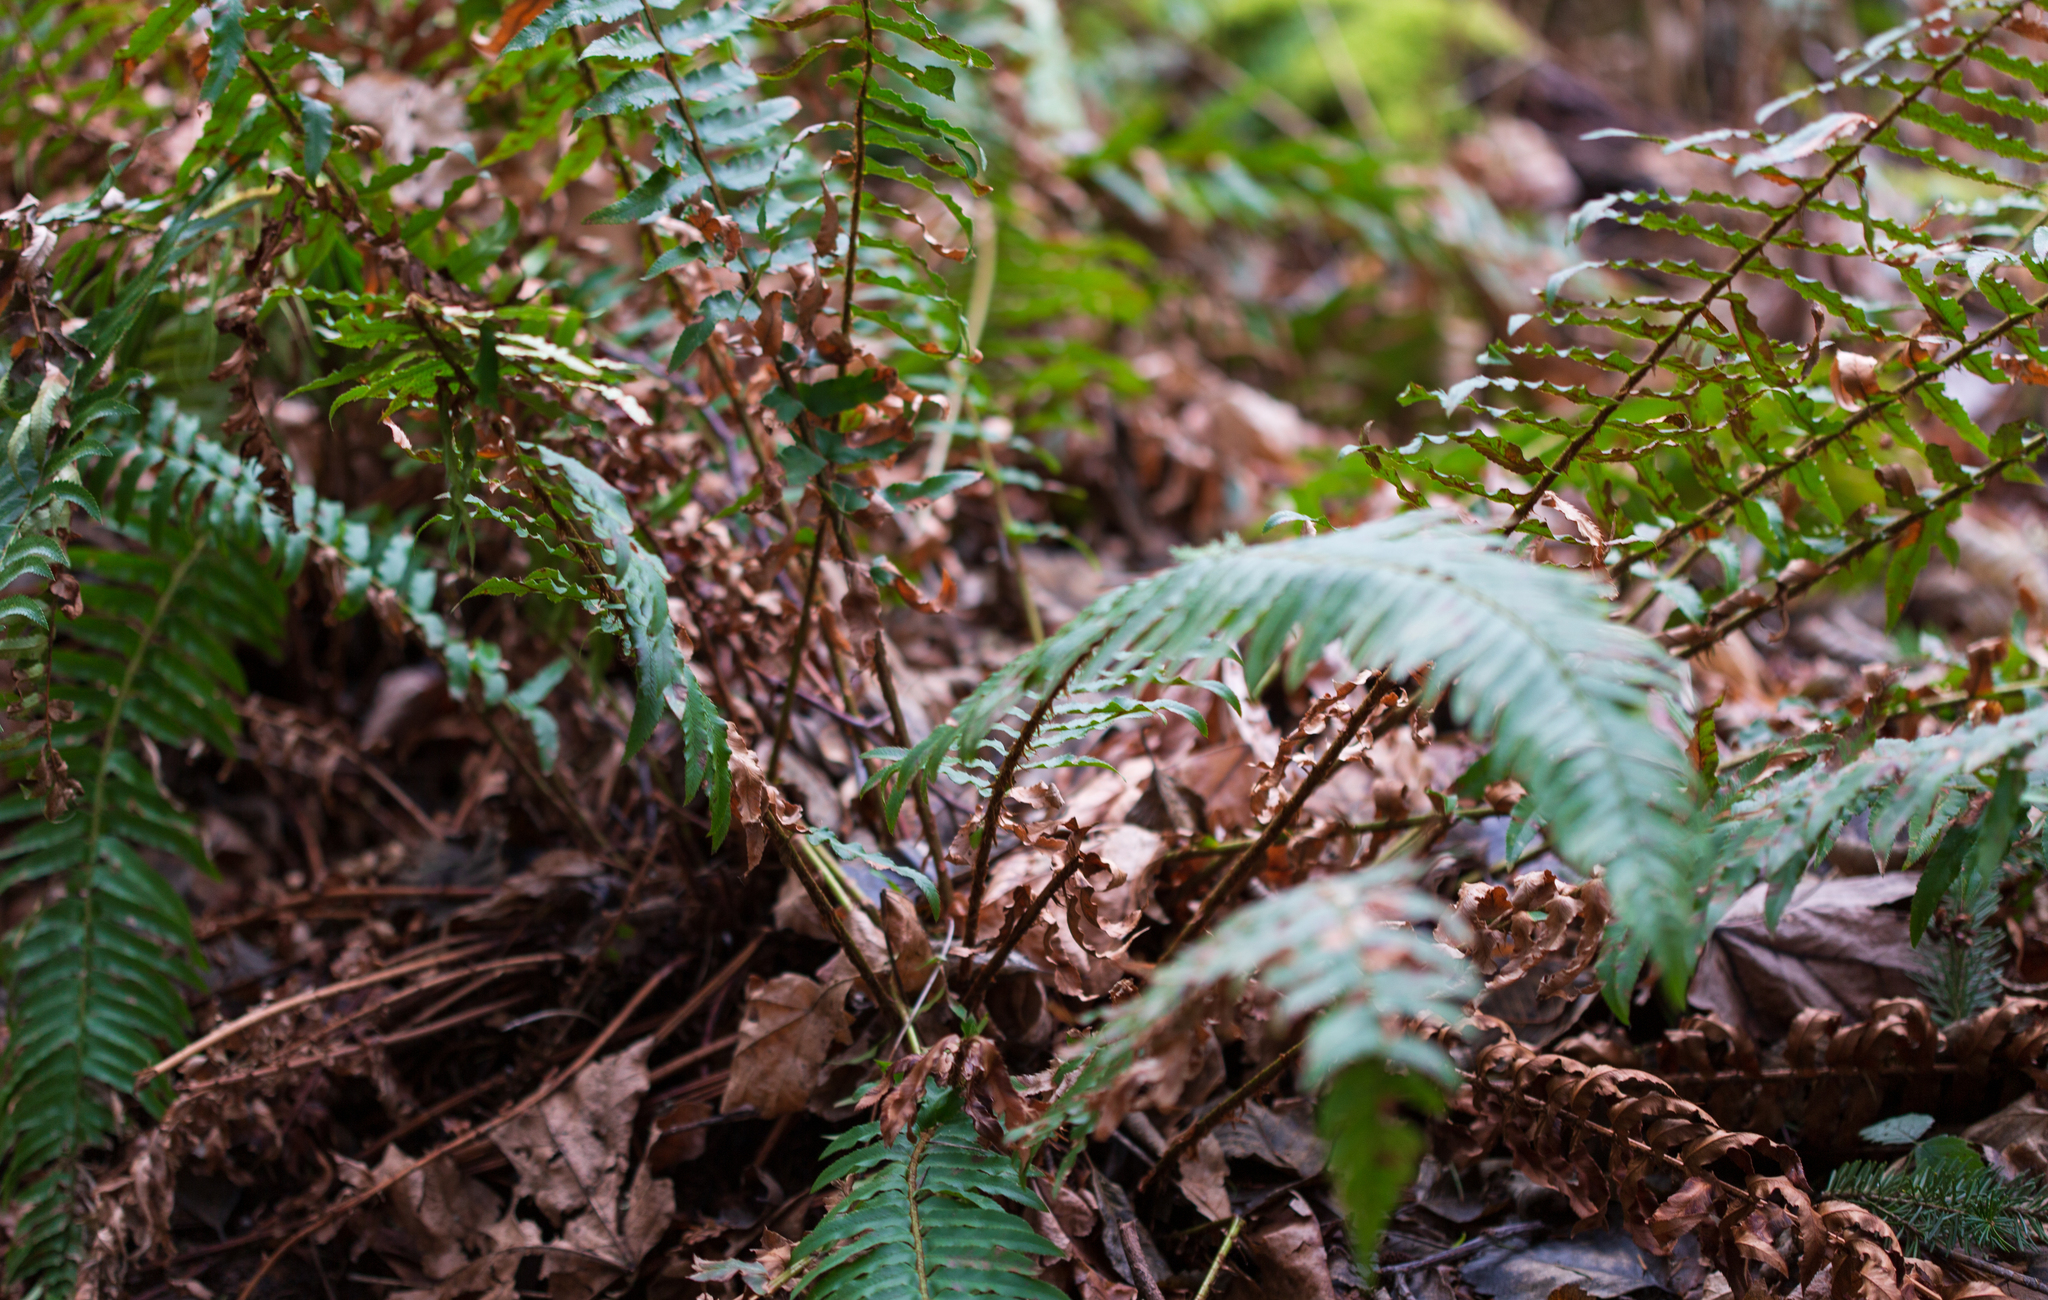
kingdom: Plantae
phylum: Tracheophyta
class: Polypodiopsida
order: Polypodiales
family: Dryopteridaceae
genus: Polystichum
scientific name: Polystichum munitum
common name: Western sword-fern
